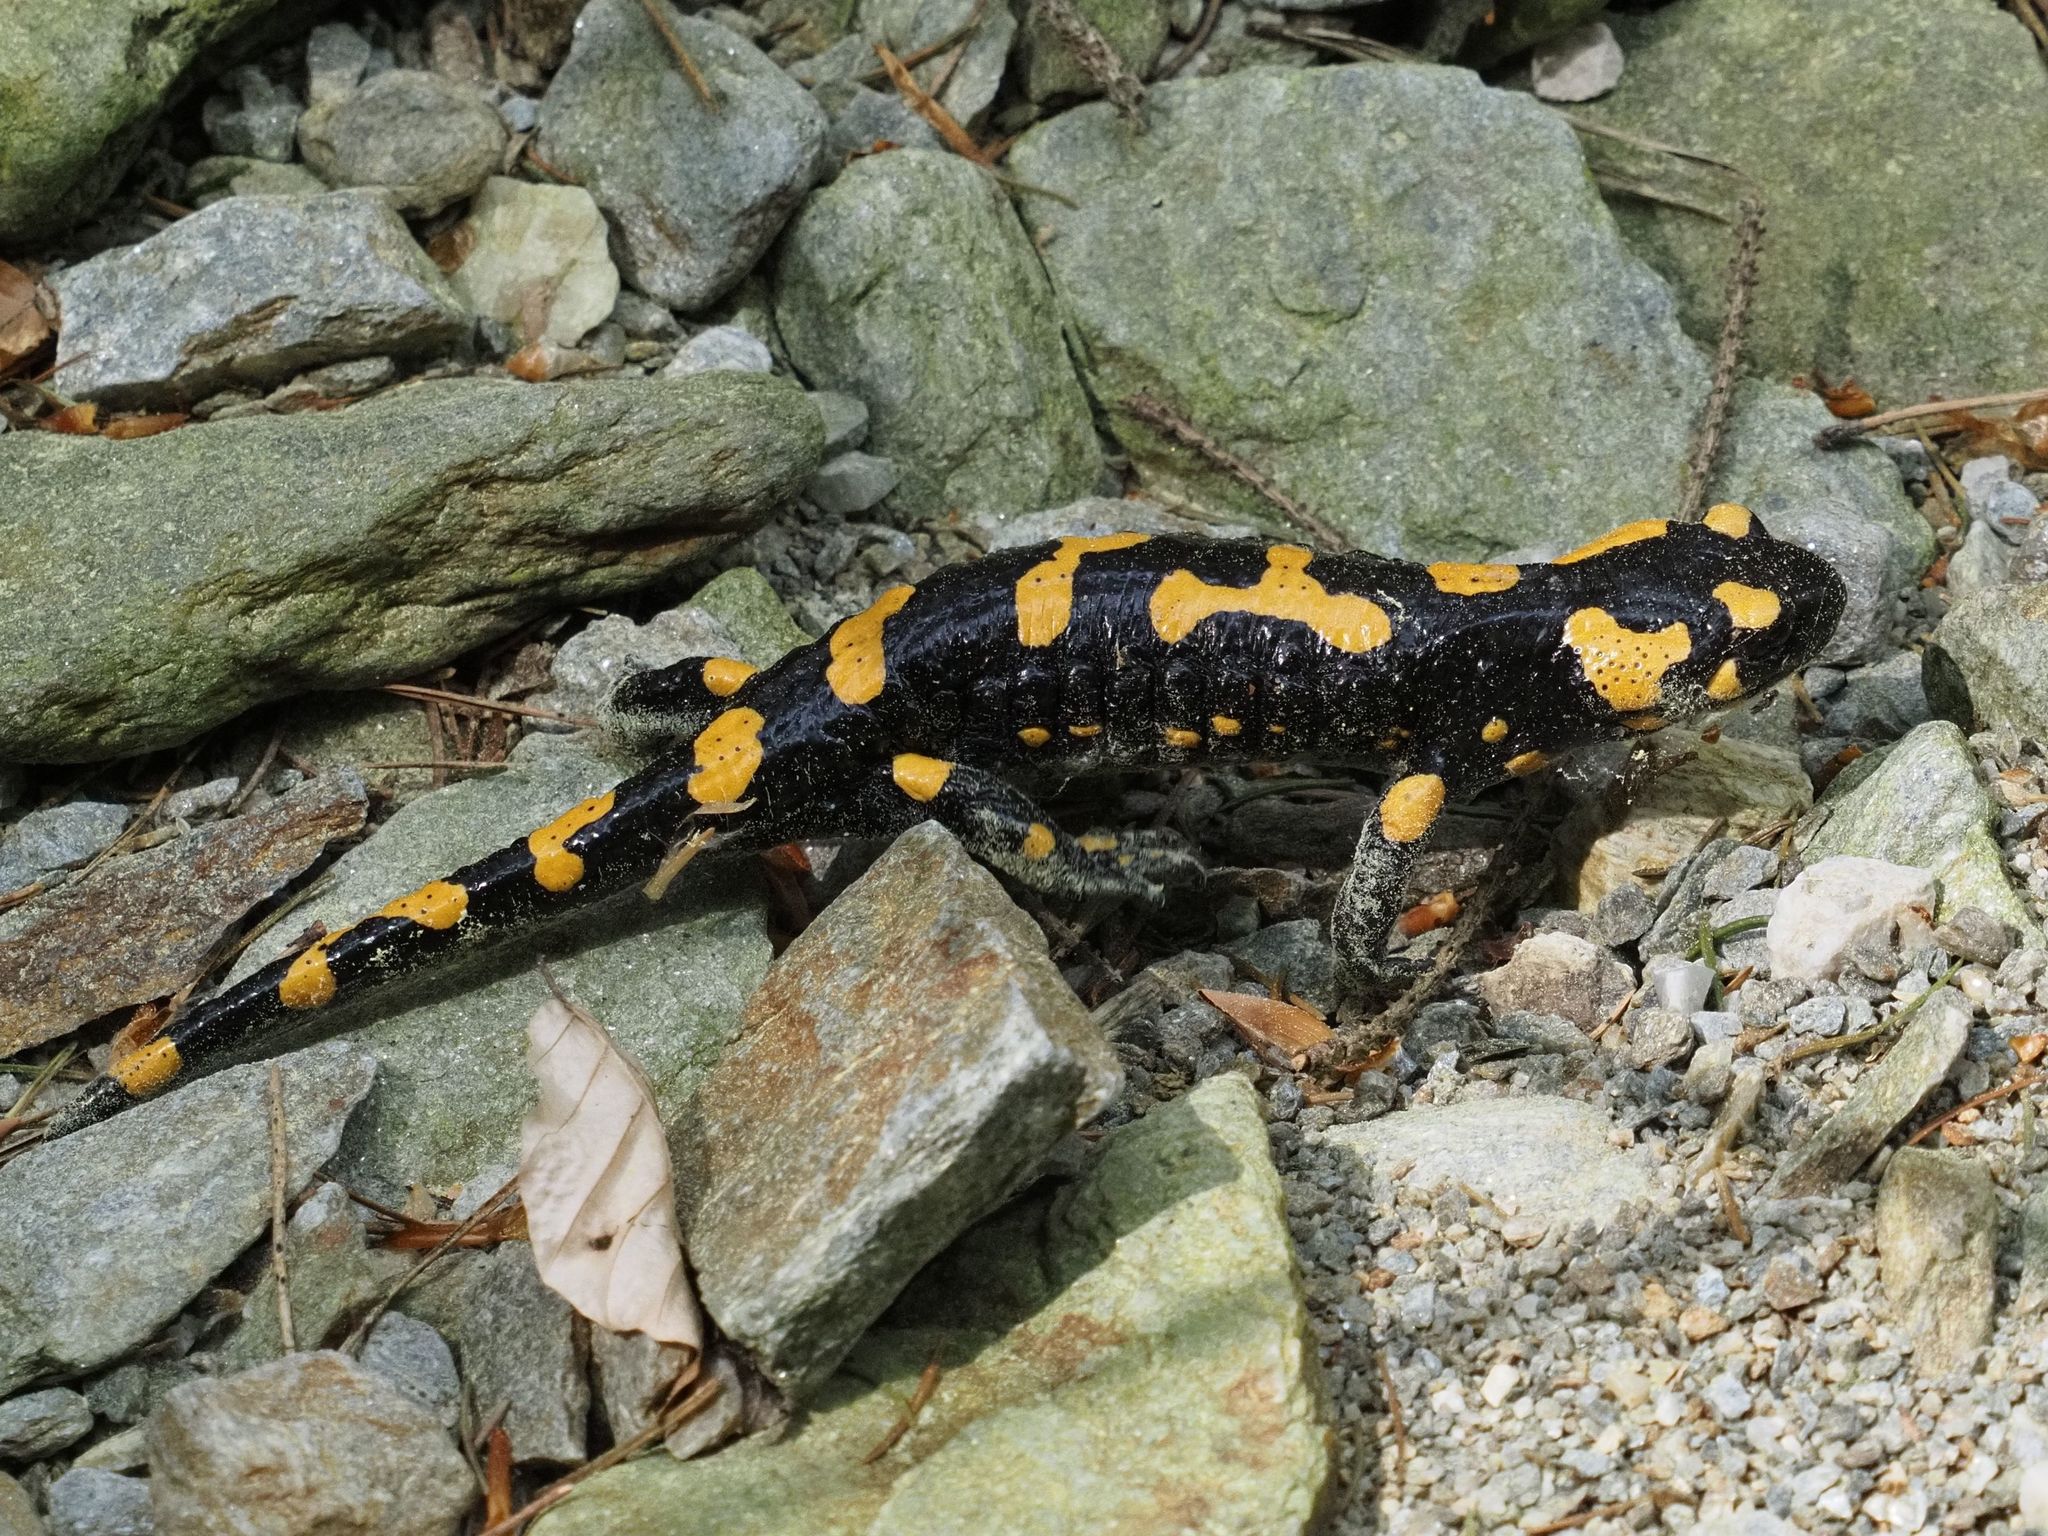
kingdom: Animalia
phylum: Chordata
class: Amphibia
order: Caudata
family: Salamandridae
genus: Salamandra
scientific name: Salamandra salamandra
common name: Fire salamander
